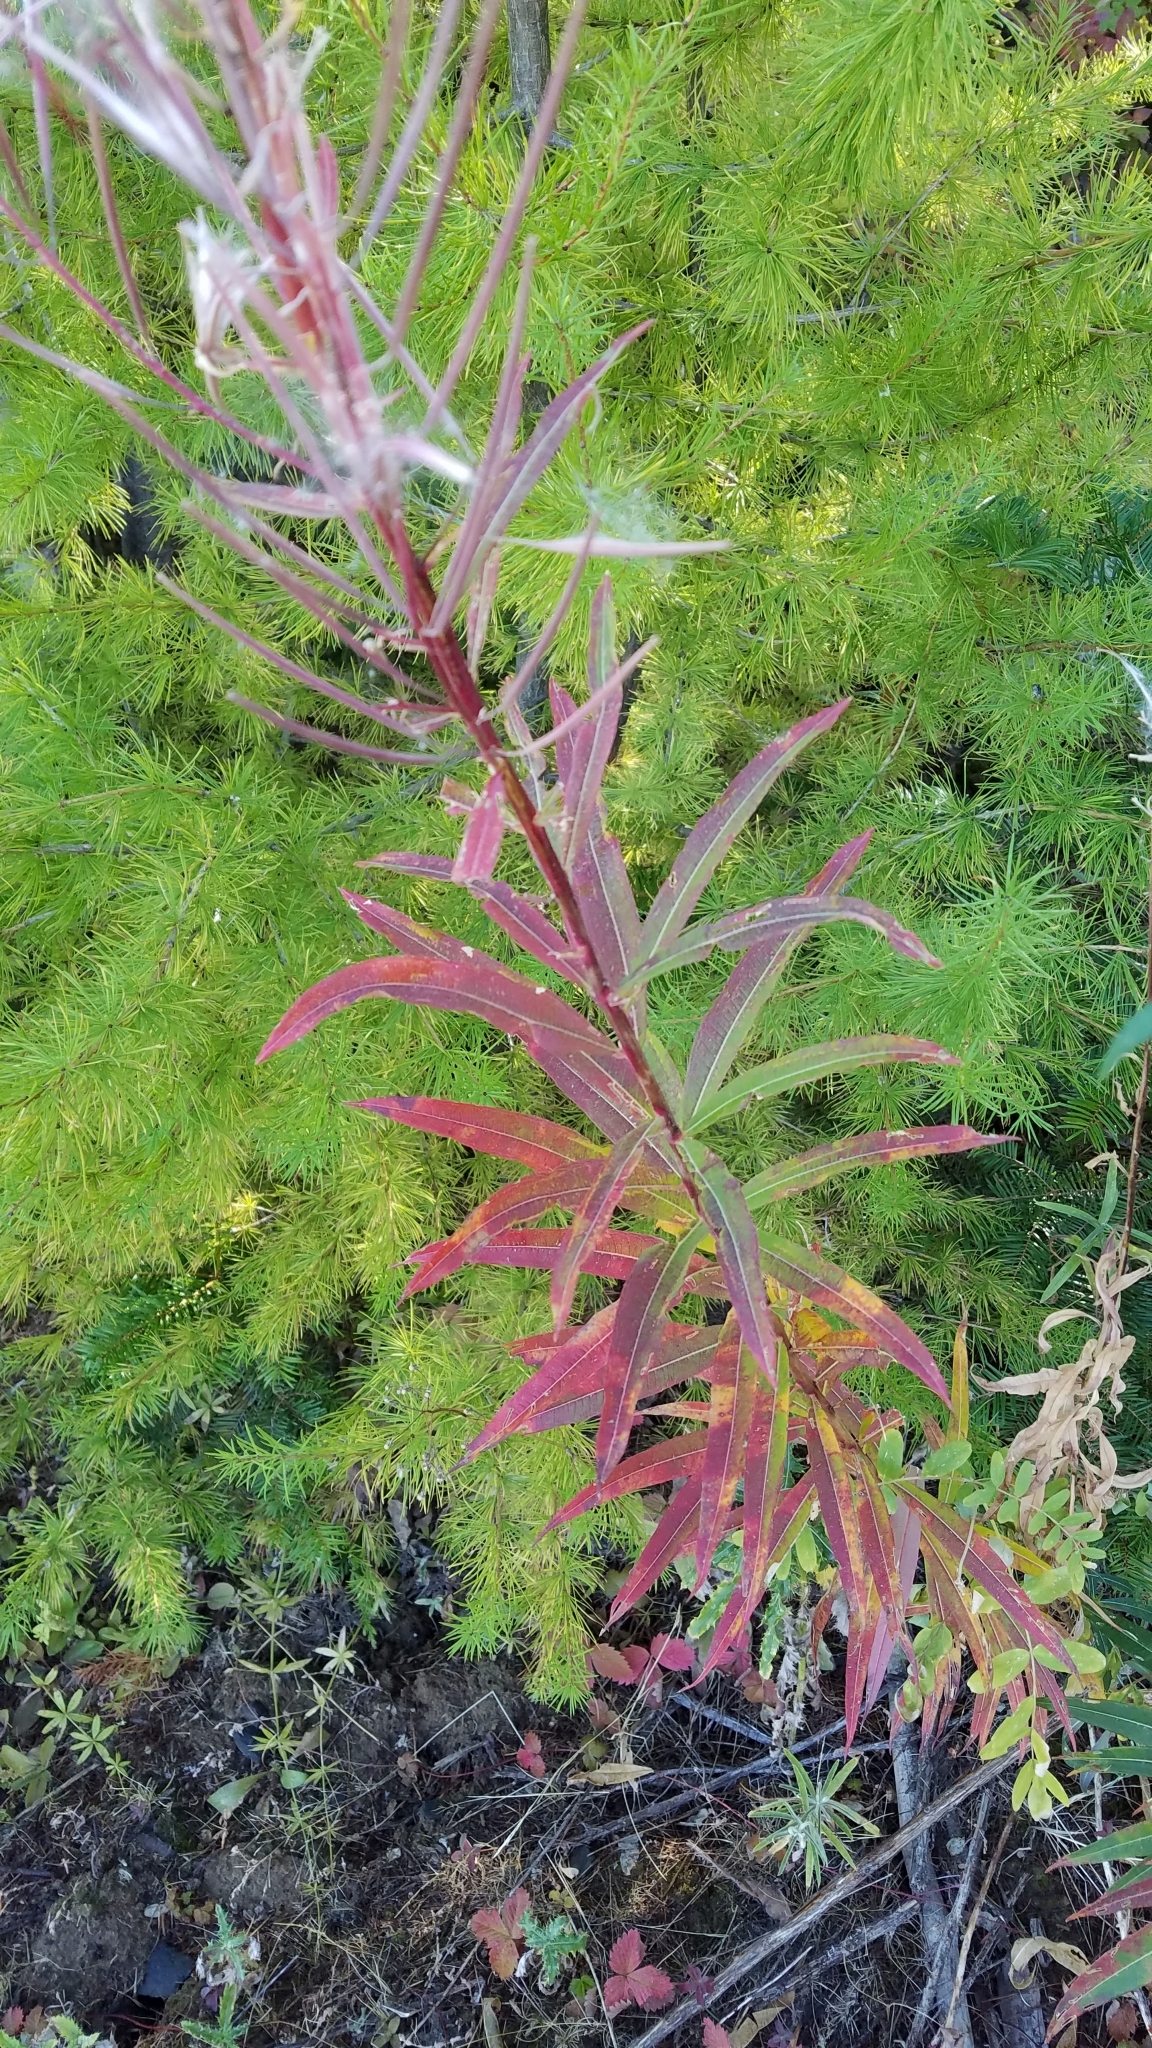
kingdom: Plantae
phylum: Tracheophyta
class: Magnoliopsida
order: Myrtales
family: Onagraceae
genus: Chamaenerion
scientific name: Chamaenerion angustifolium
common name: Fireweed
